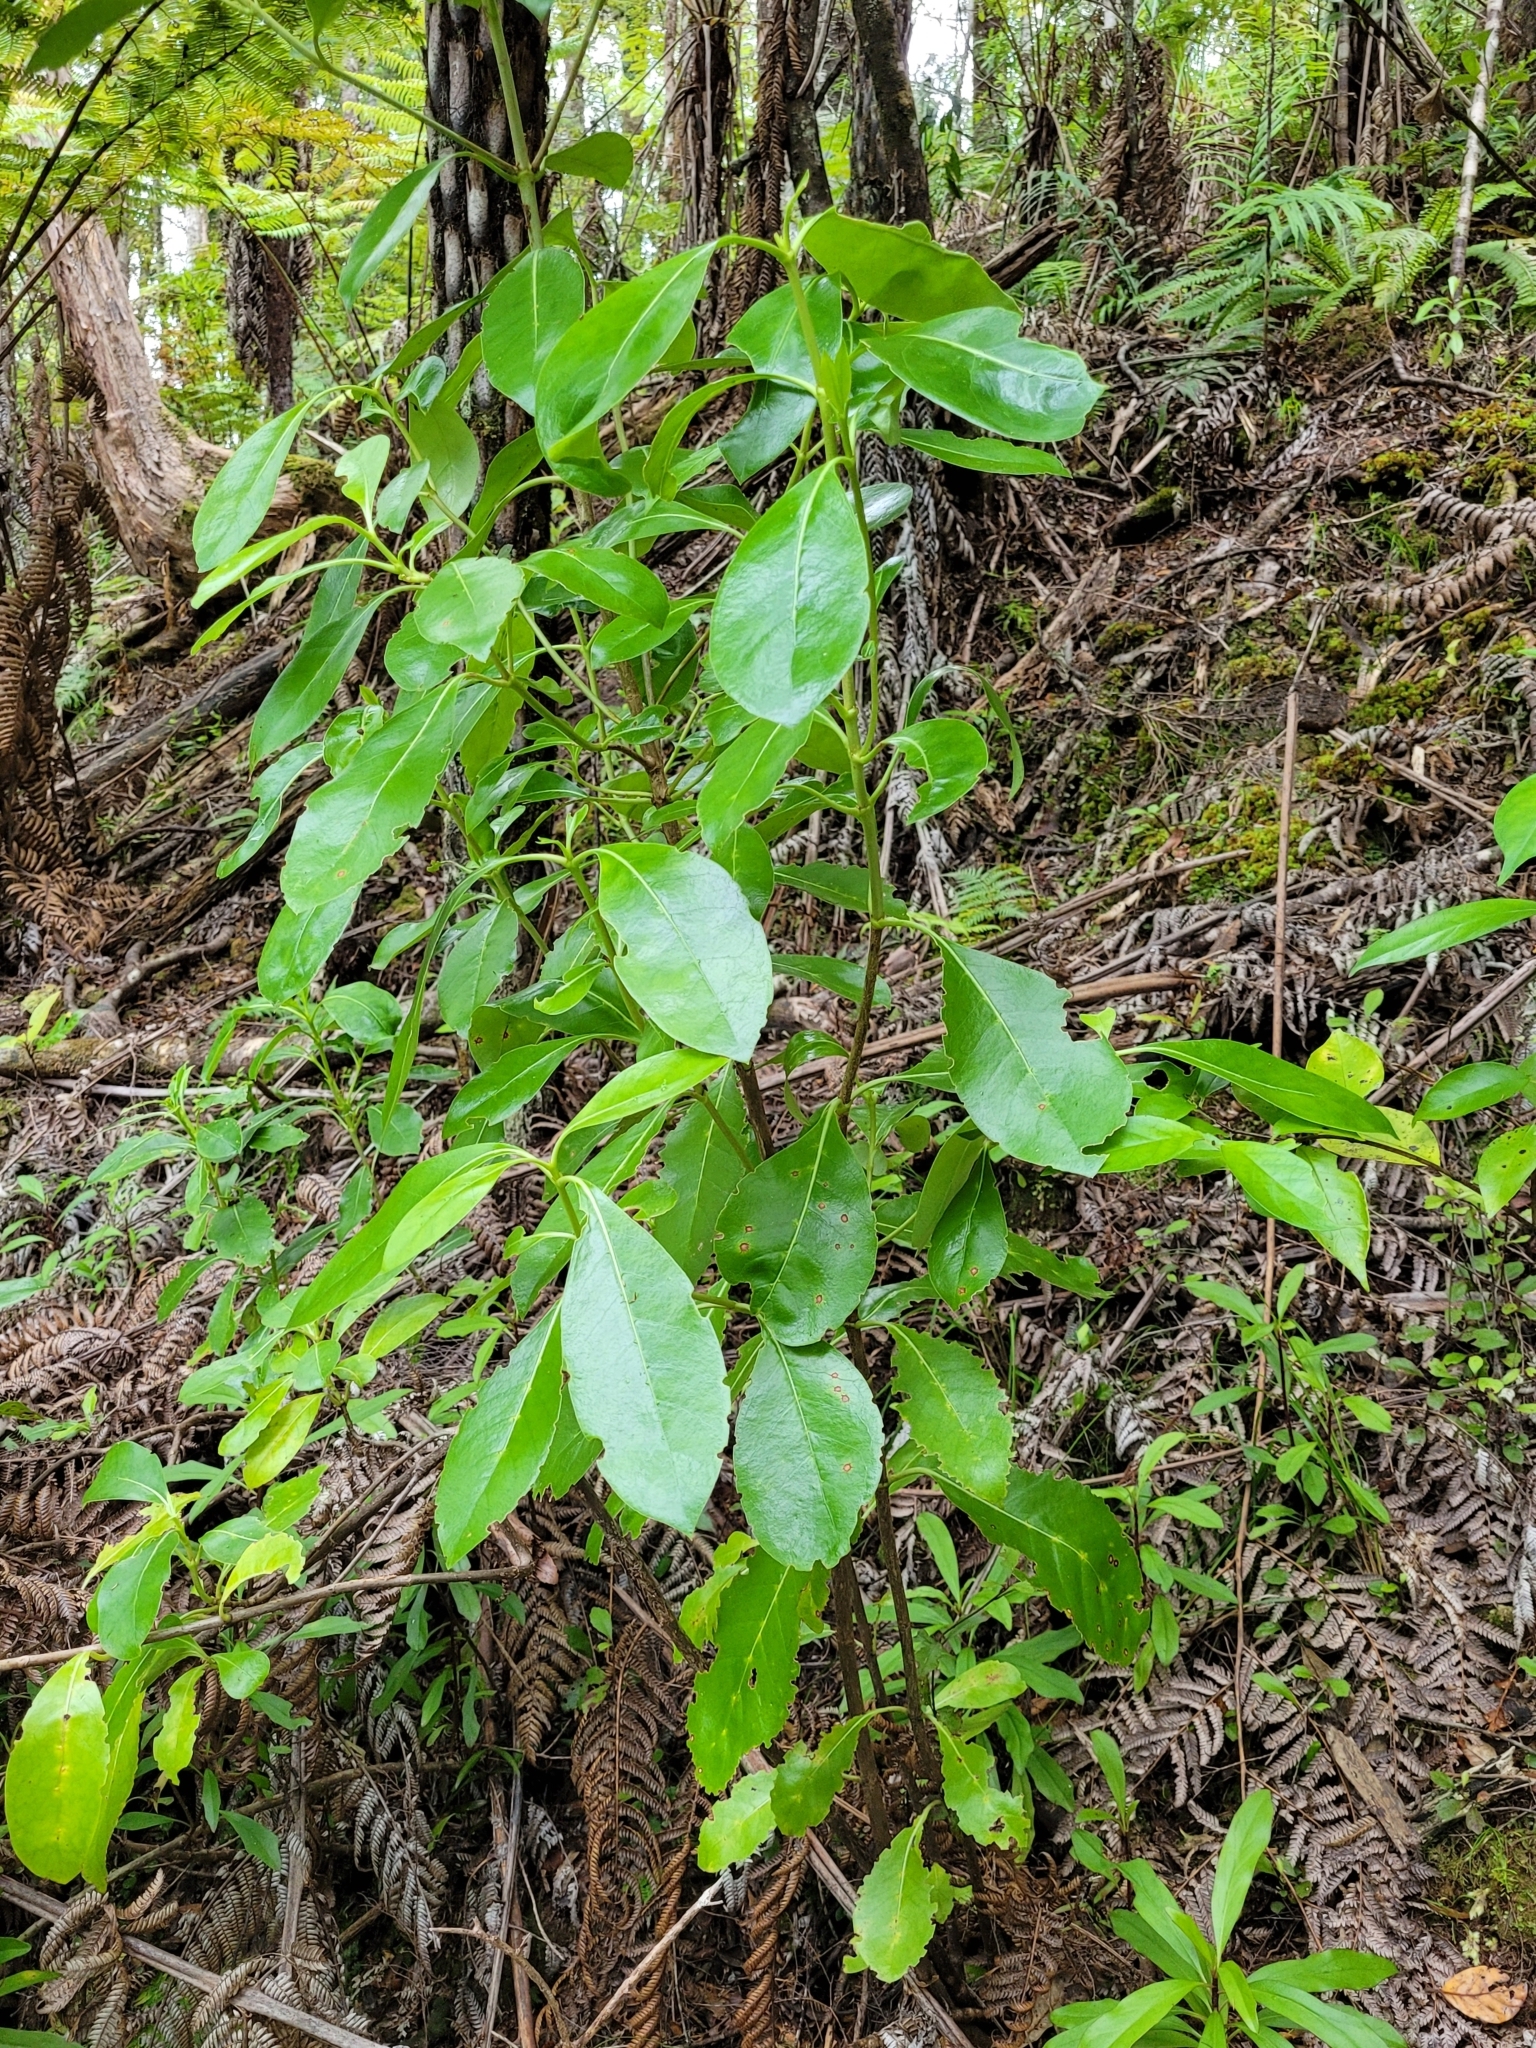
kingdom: Plantae
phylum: Tracheophyta
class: Magnoliopsida
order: Gentianales
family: Rubiaceae
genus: Coprosma
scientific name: Coprosma lucida
